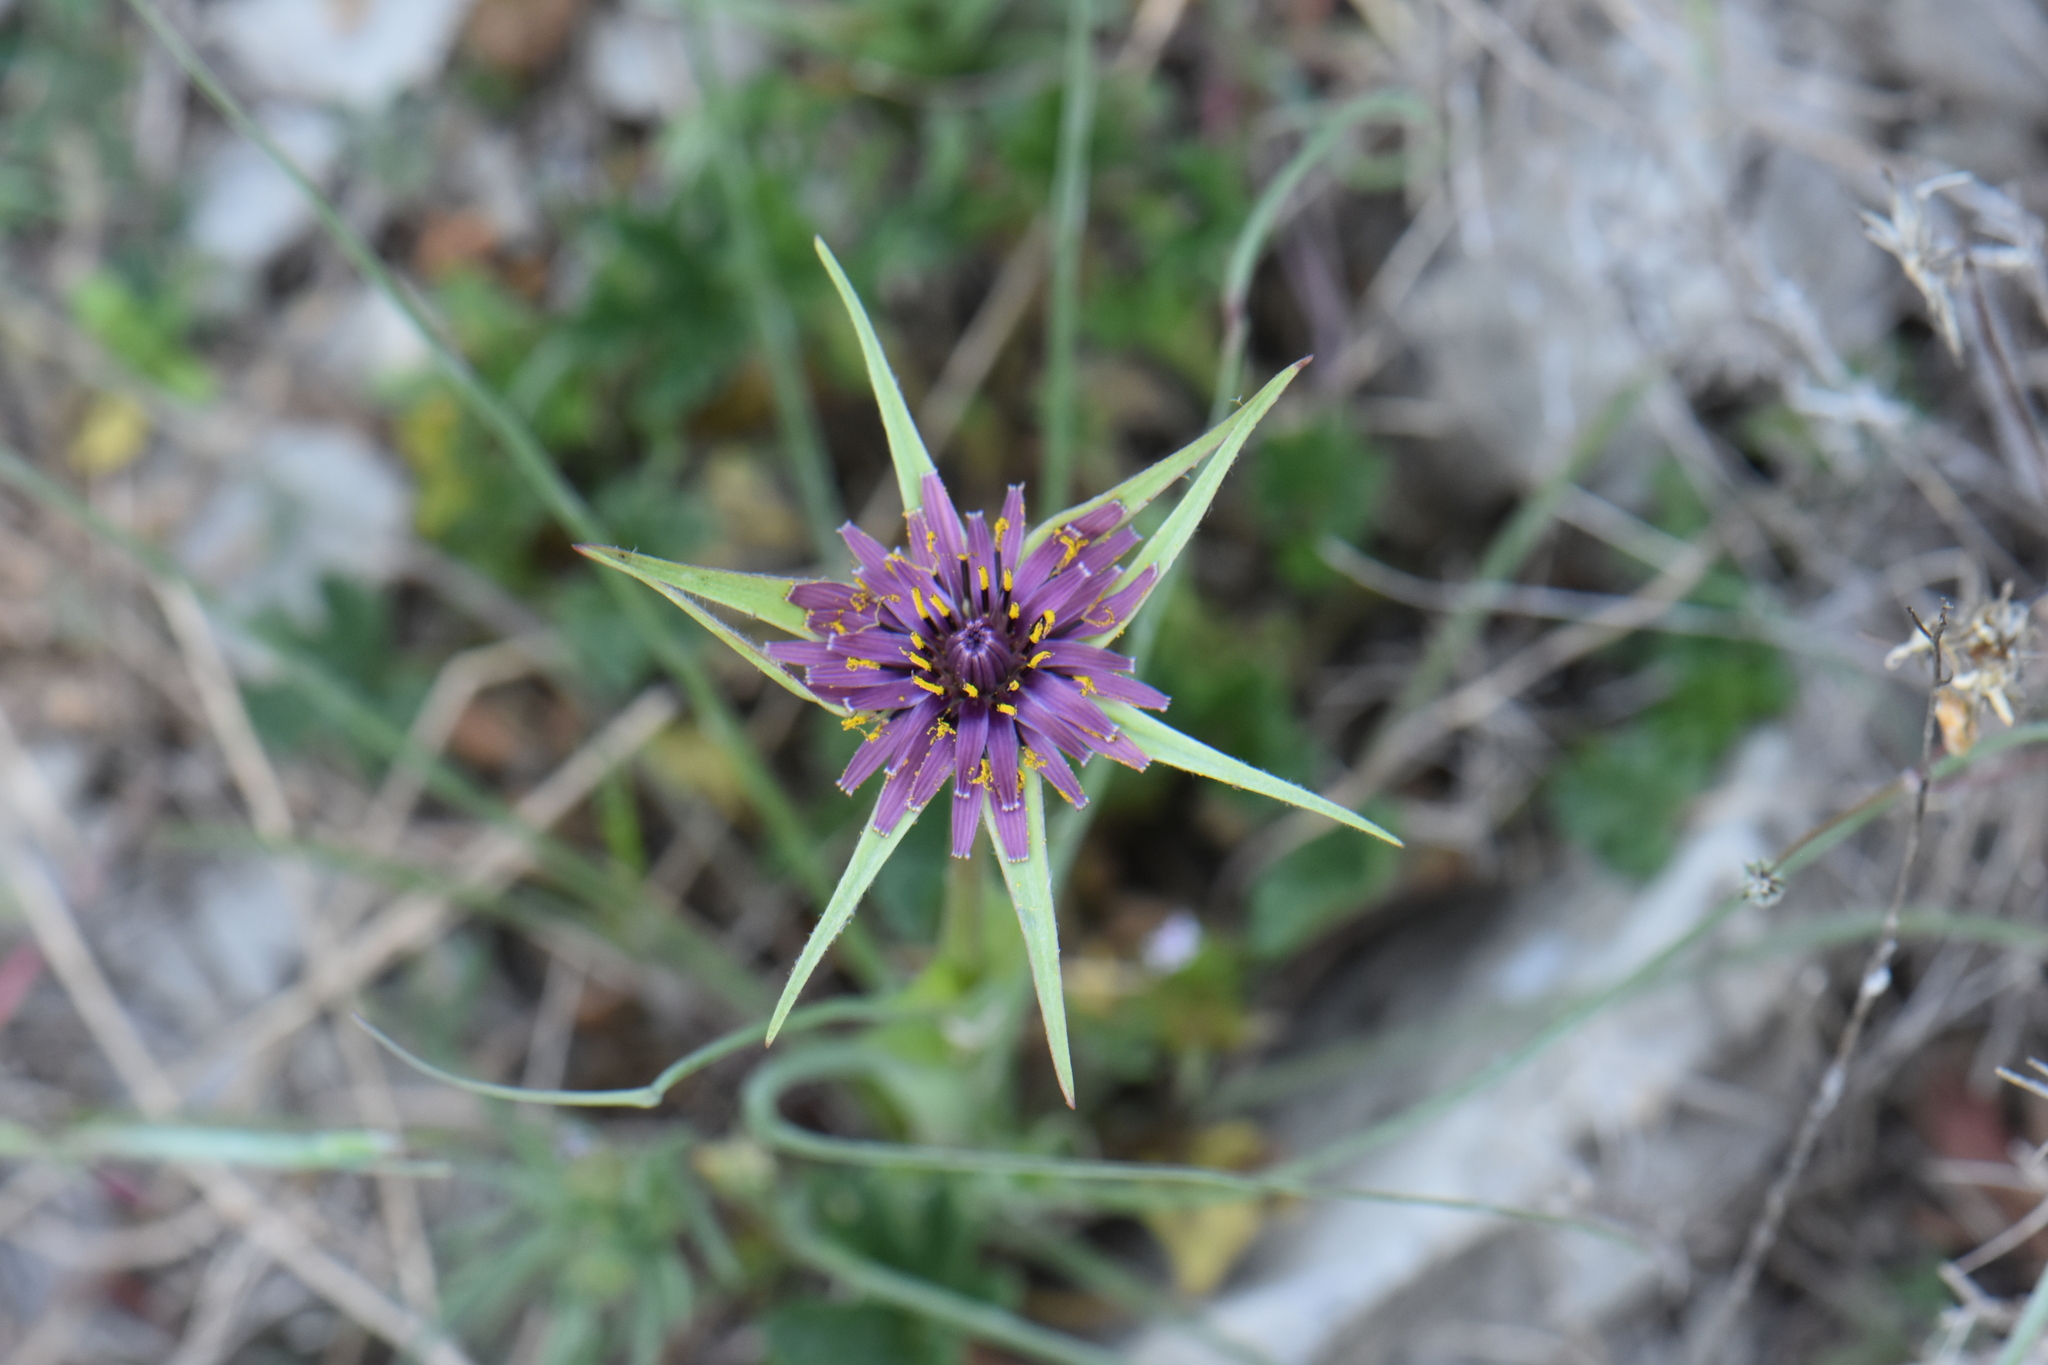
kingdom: Plantae
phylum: Tracheophyta
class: Magnoliopsida
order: Asterales
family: Asteraceae
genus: Tragopogon
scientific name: Tragopogon porrifolius
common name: Salsify
